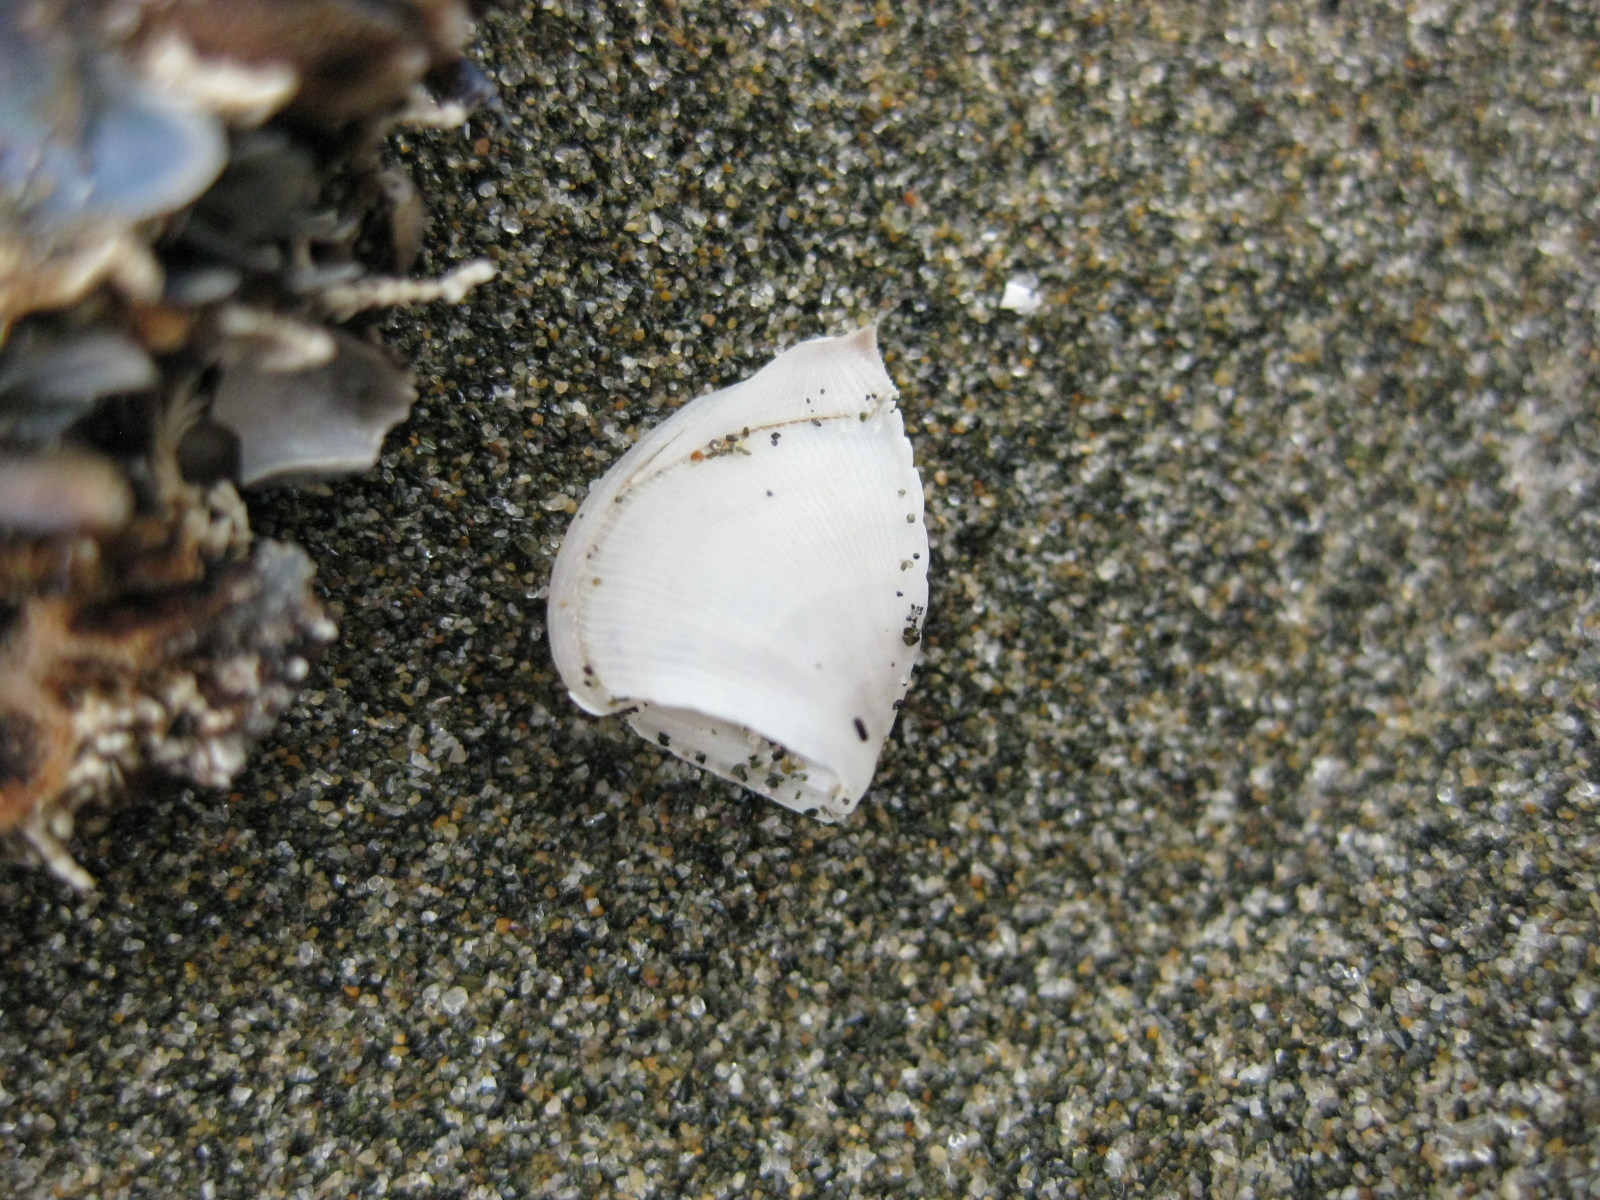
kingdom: Animalia
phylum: Arthropoda
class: Maxillopoda
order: Pedunculata
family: Lepadidae
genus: Lepas
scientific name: Lepas pectinata
